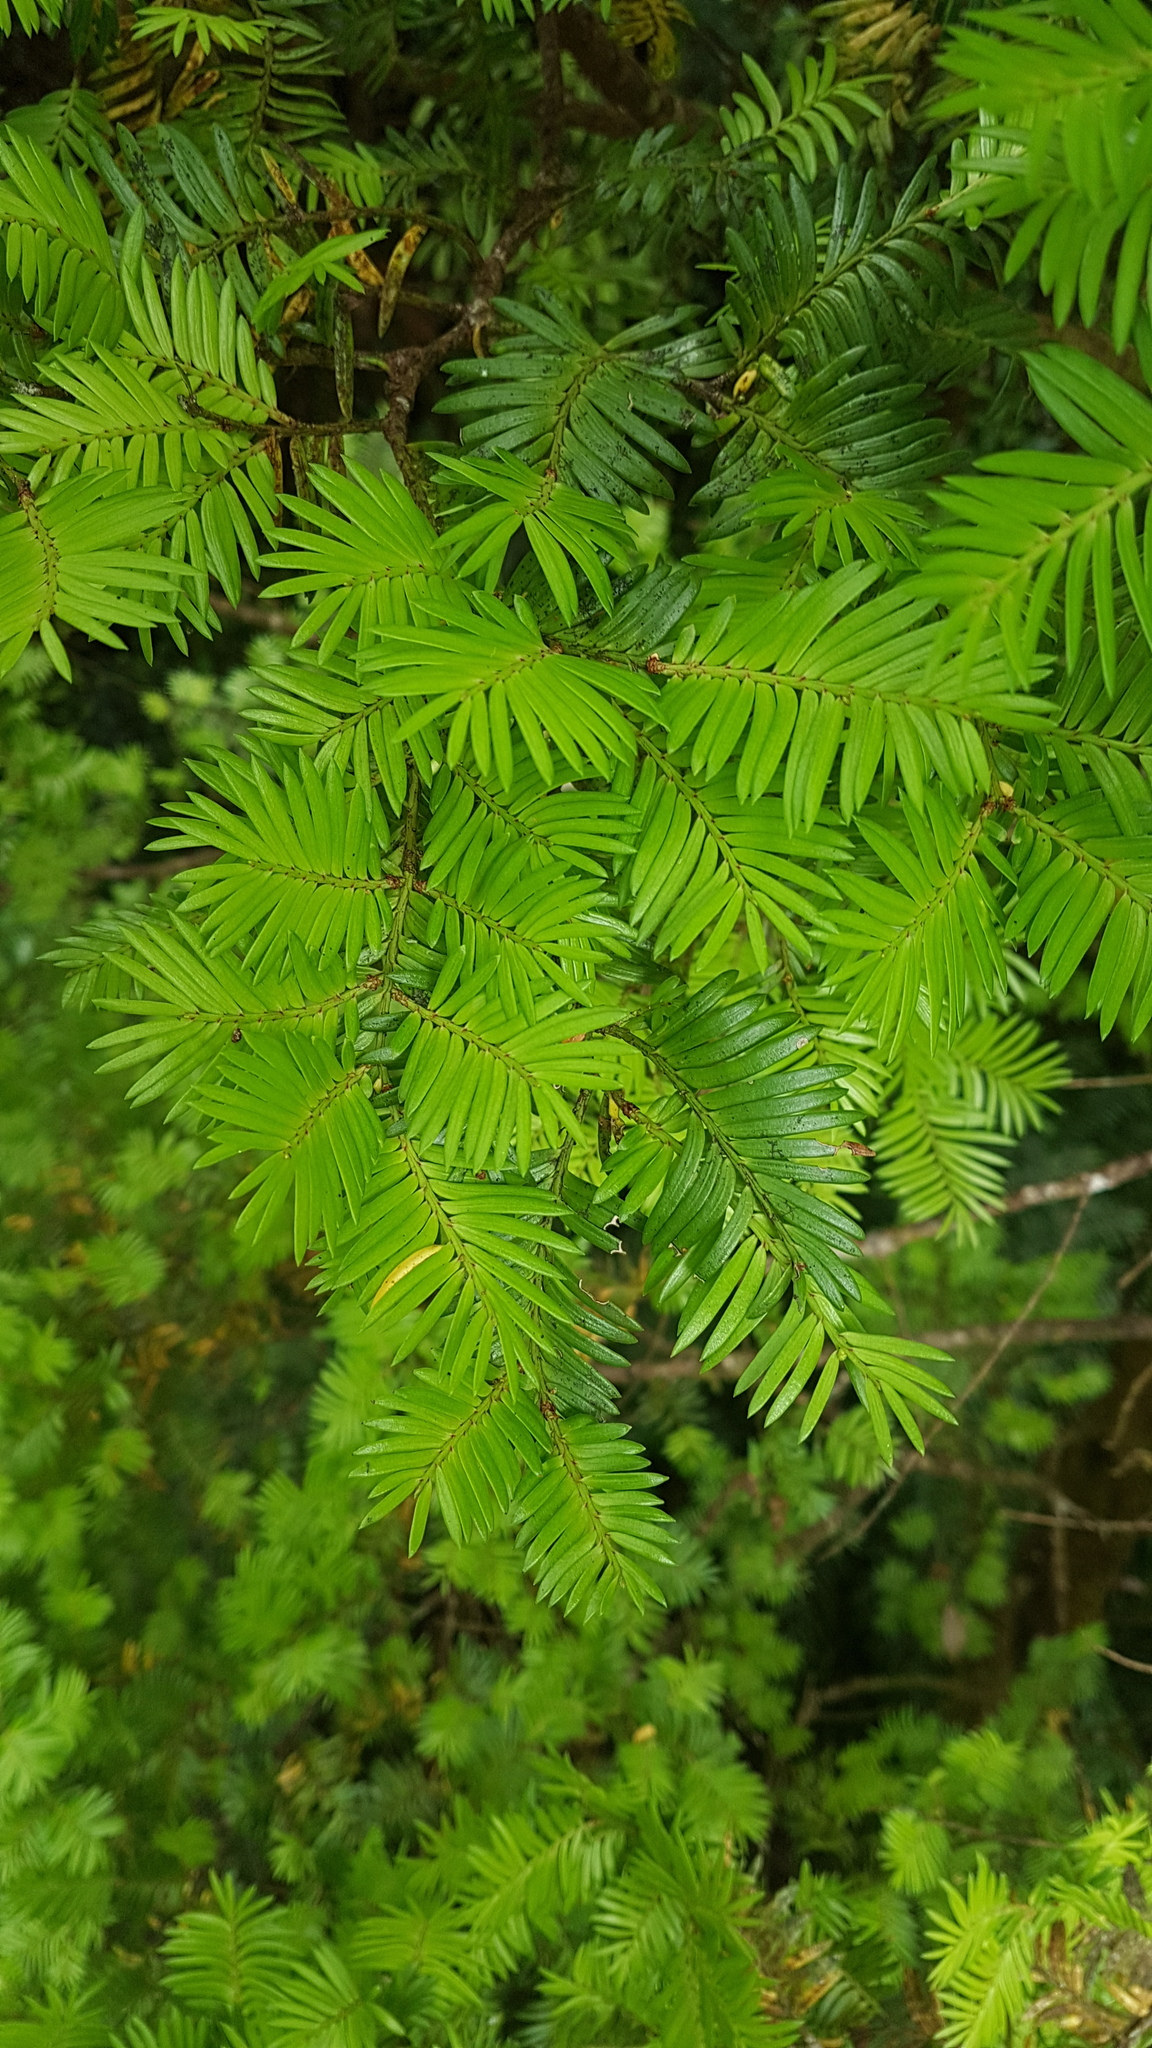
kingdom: Plantae
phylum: Tracheophyta
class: Pinopsida
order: Pinales
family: Podocarpaceae
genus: Prumnopitys
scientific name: Prumnopitys ferruginea
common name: Brown pine
